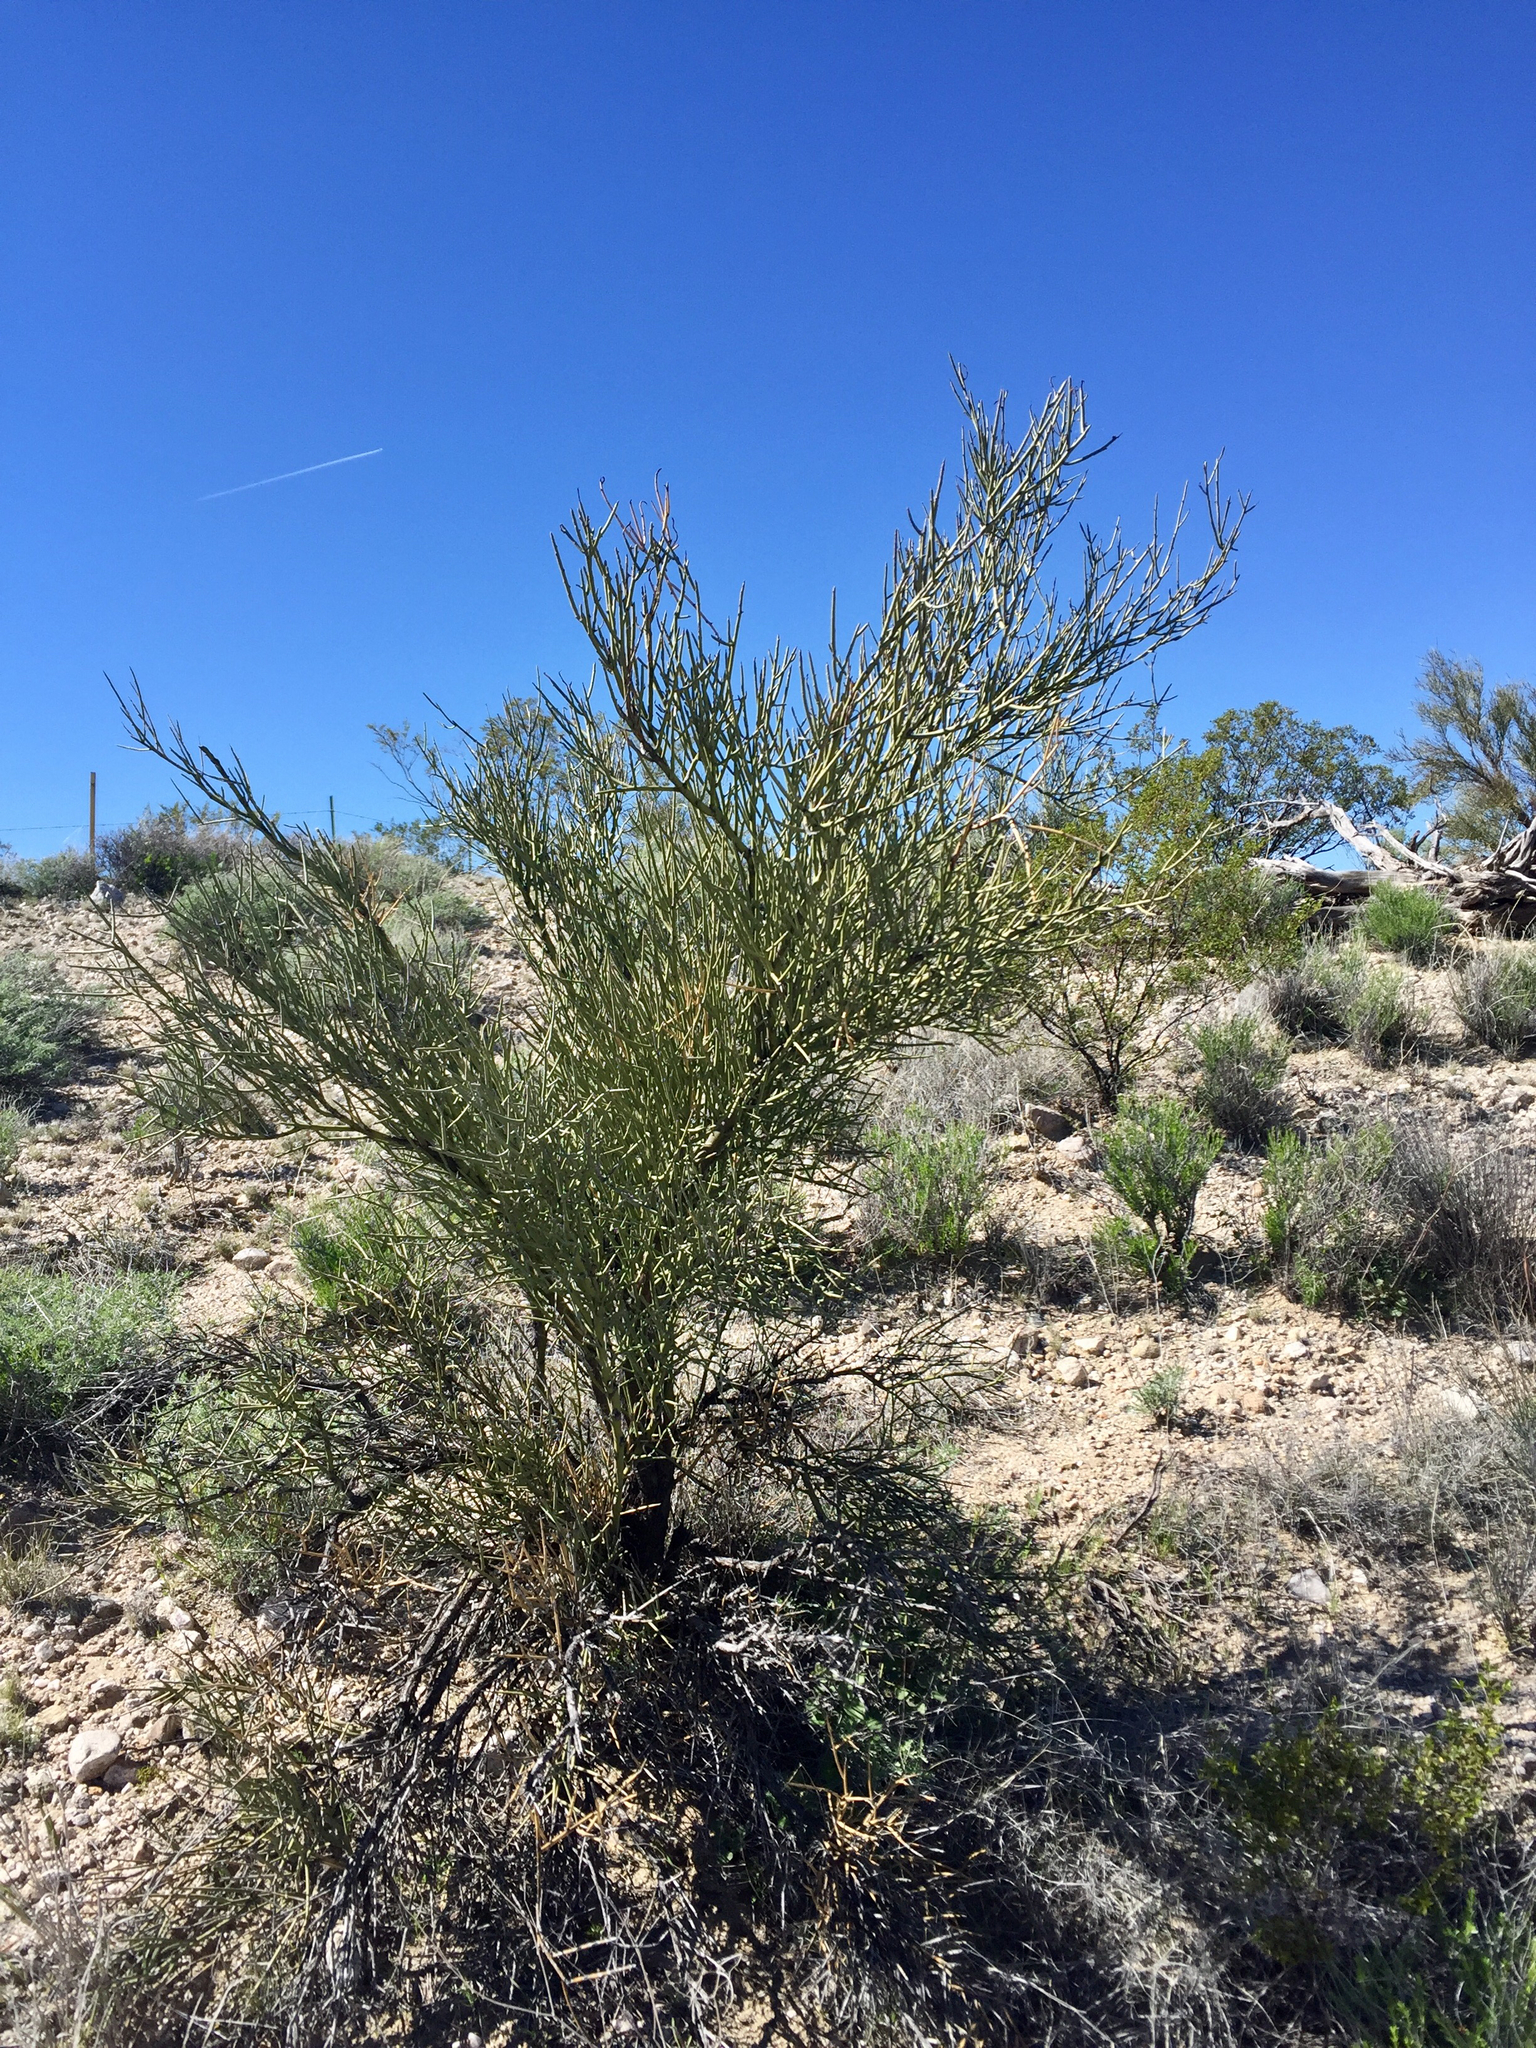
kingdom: Plantae
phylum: Tracheophyta
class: Magnoliopsida
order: Celastrales
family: Celastraceae
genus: Canotia
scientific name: Canotia holacantha
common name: Crucifixion thorns
